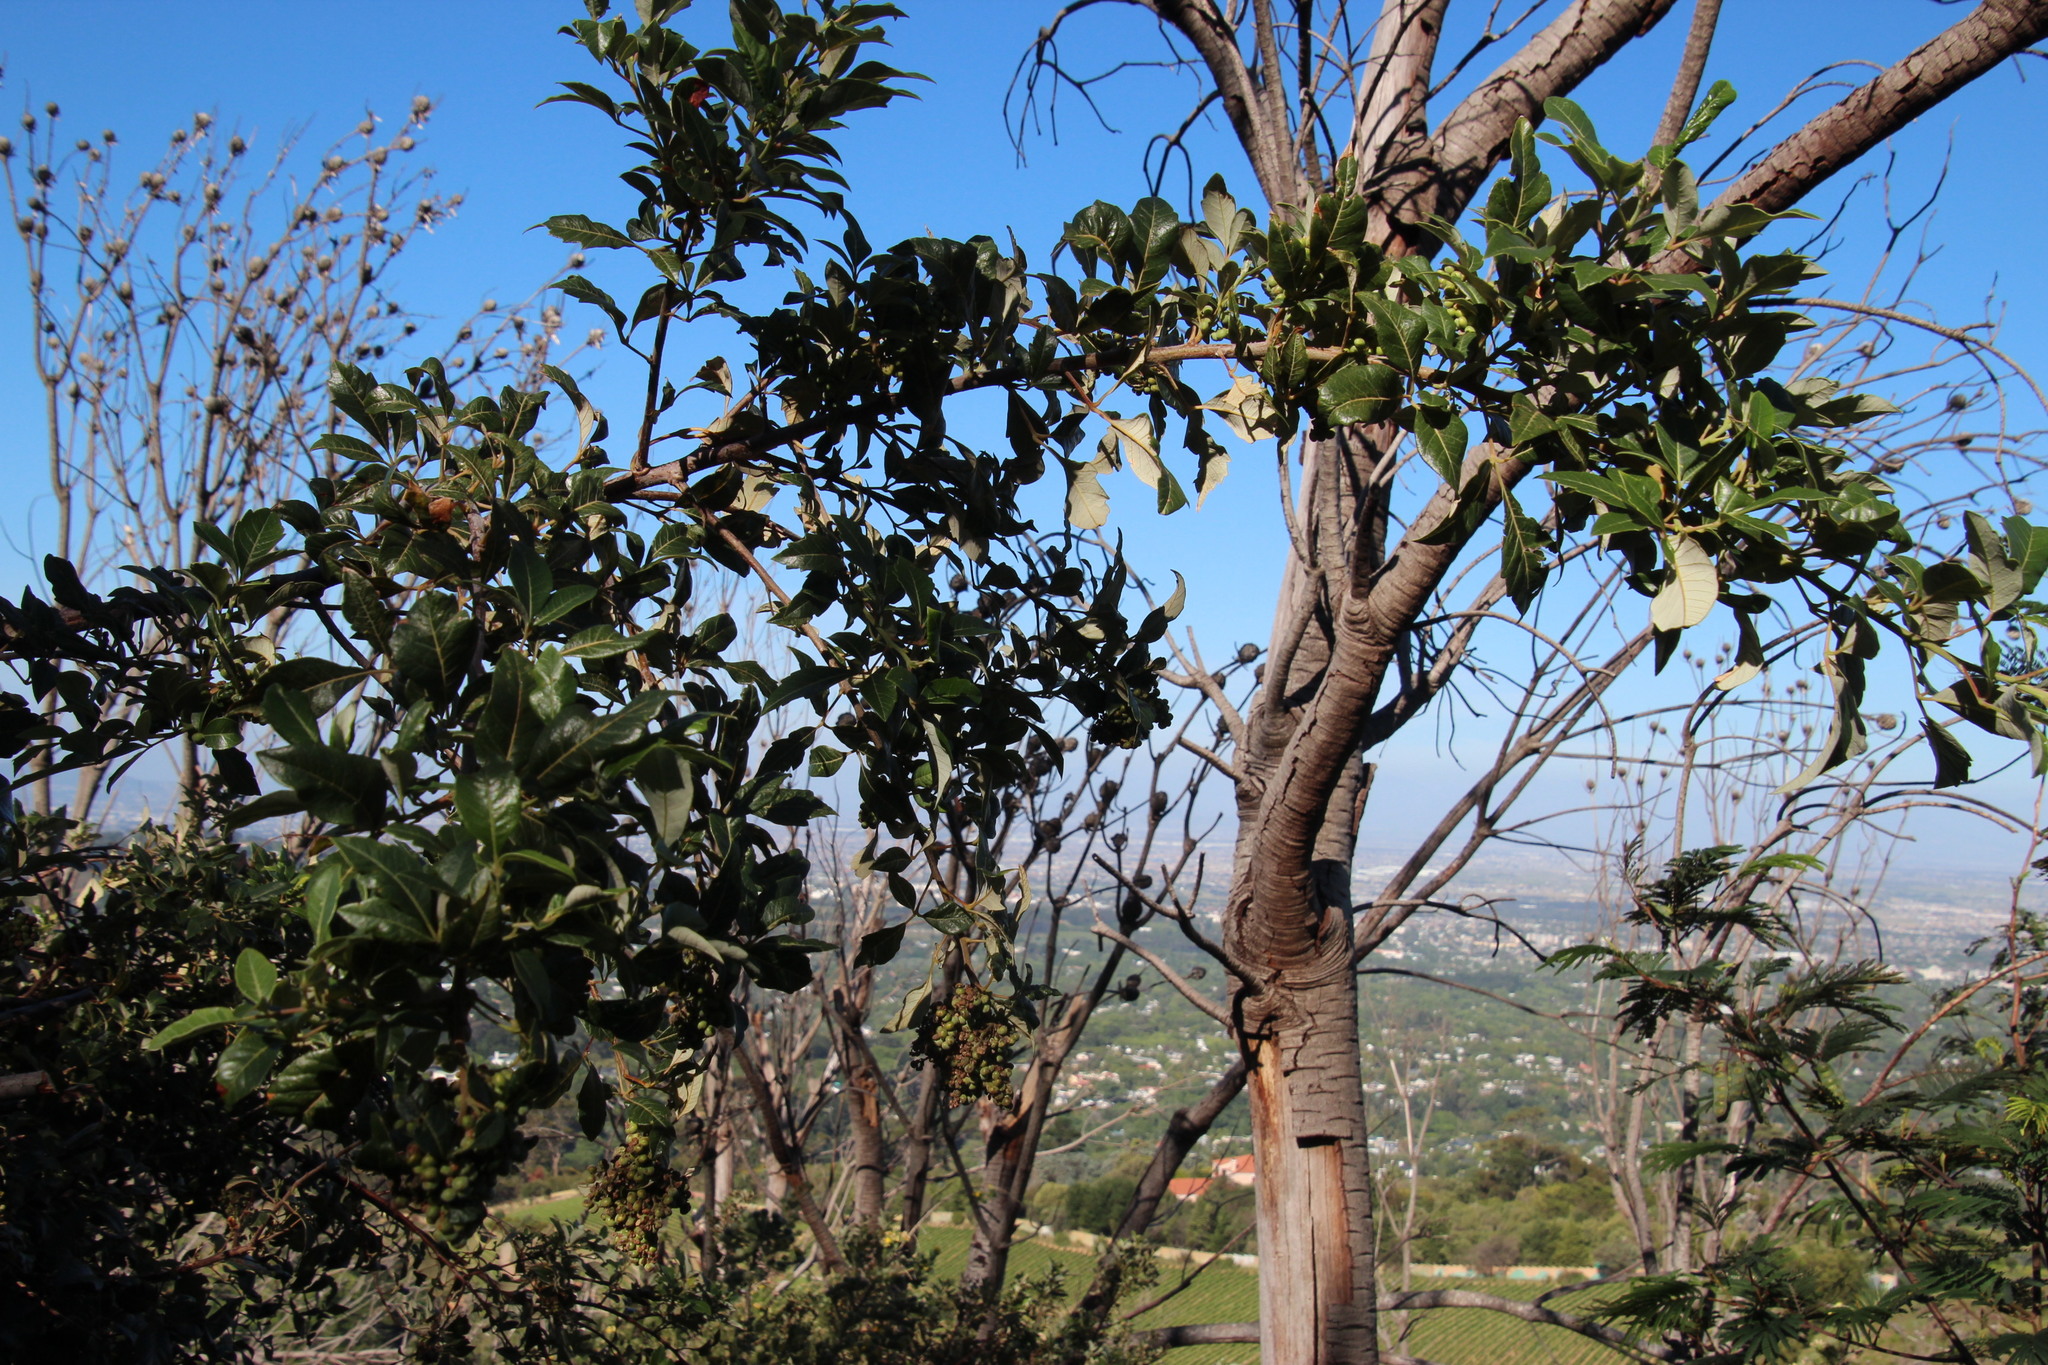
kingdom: Plantae
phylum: Tracheophyta
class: Magnoliopsida
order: Sapindales
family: Anacardiaceae
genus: Searsia
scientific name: Searsia tomentosa
